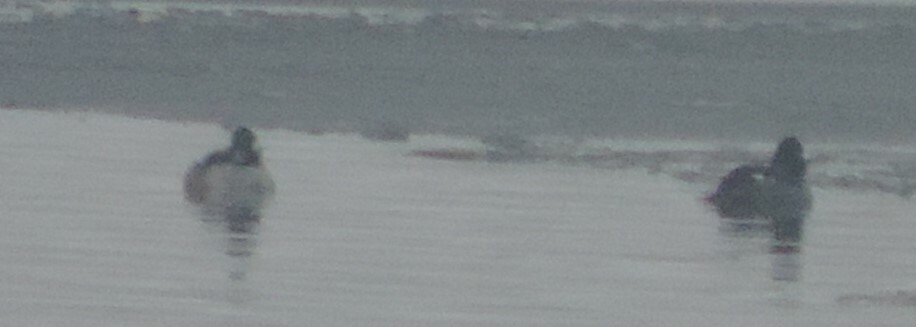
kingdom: Animalia
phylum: Chordata
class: Aves
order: Anseriformes
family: Anatidae
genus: Bucephala
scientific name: Bucephala albeola
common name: Bufflehead
